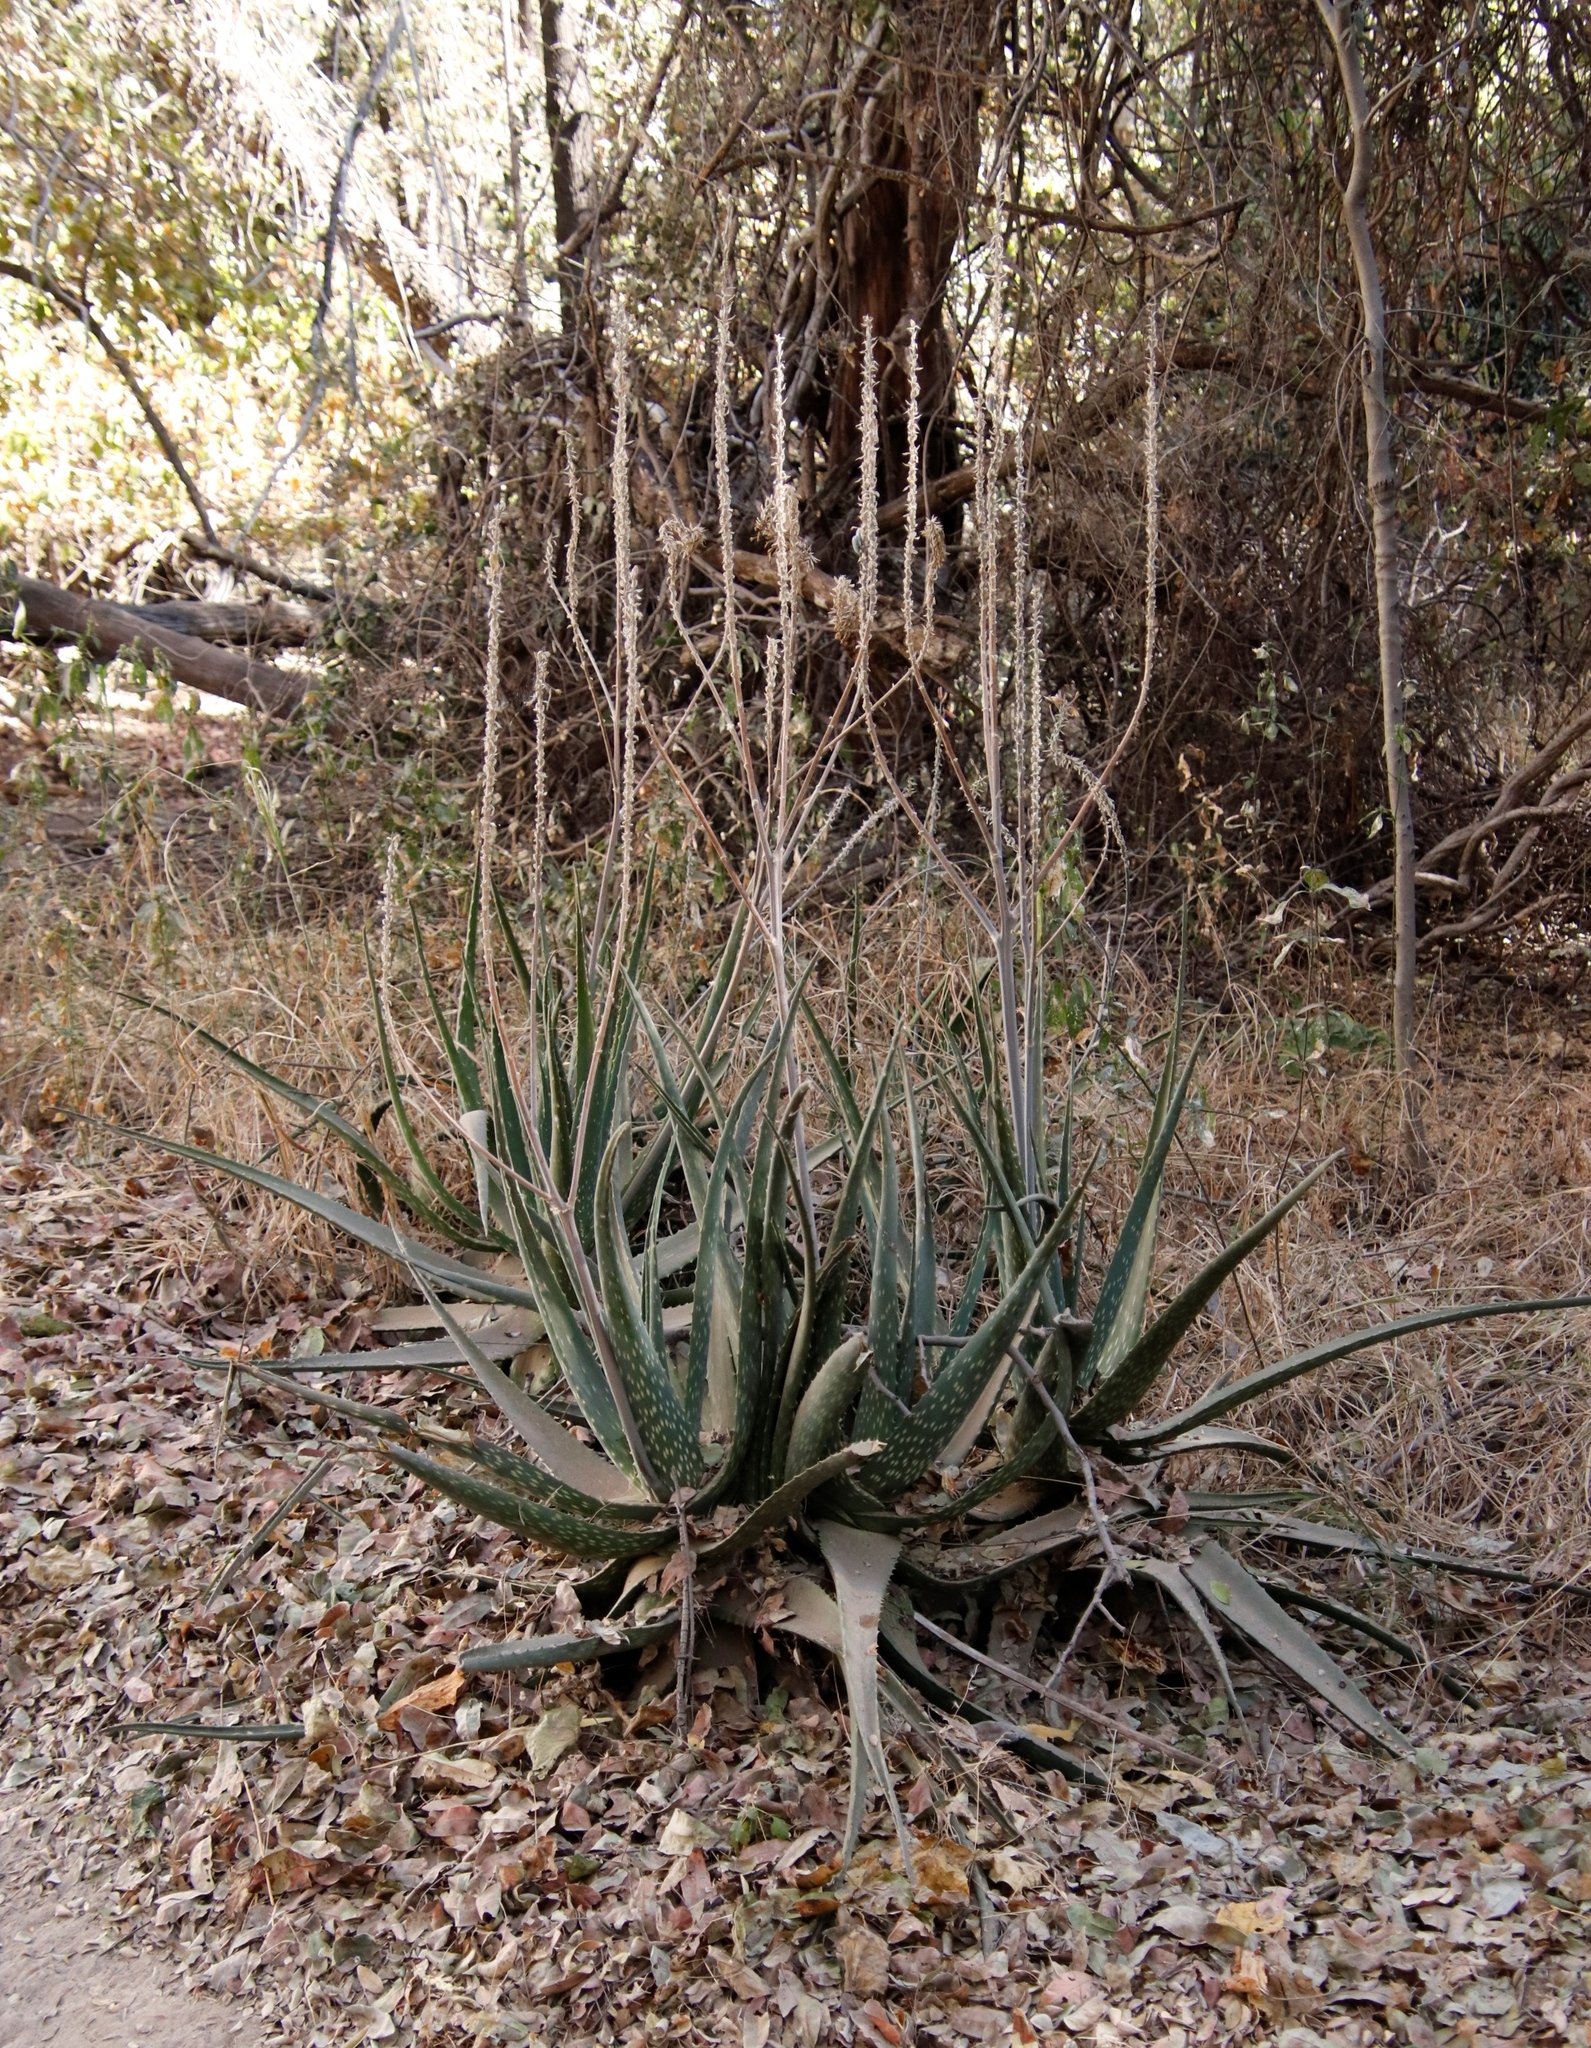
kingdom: Plantae
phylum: Tracheophyta
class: Liliopsida
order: Asparagales
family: Asphodelaceae
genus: Aloe
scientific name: Aloe littoralis
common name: Luanda tree aloe
